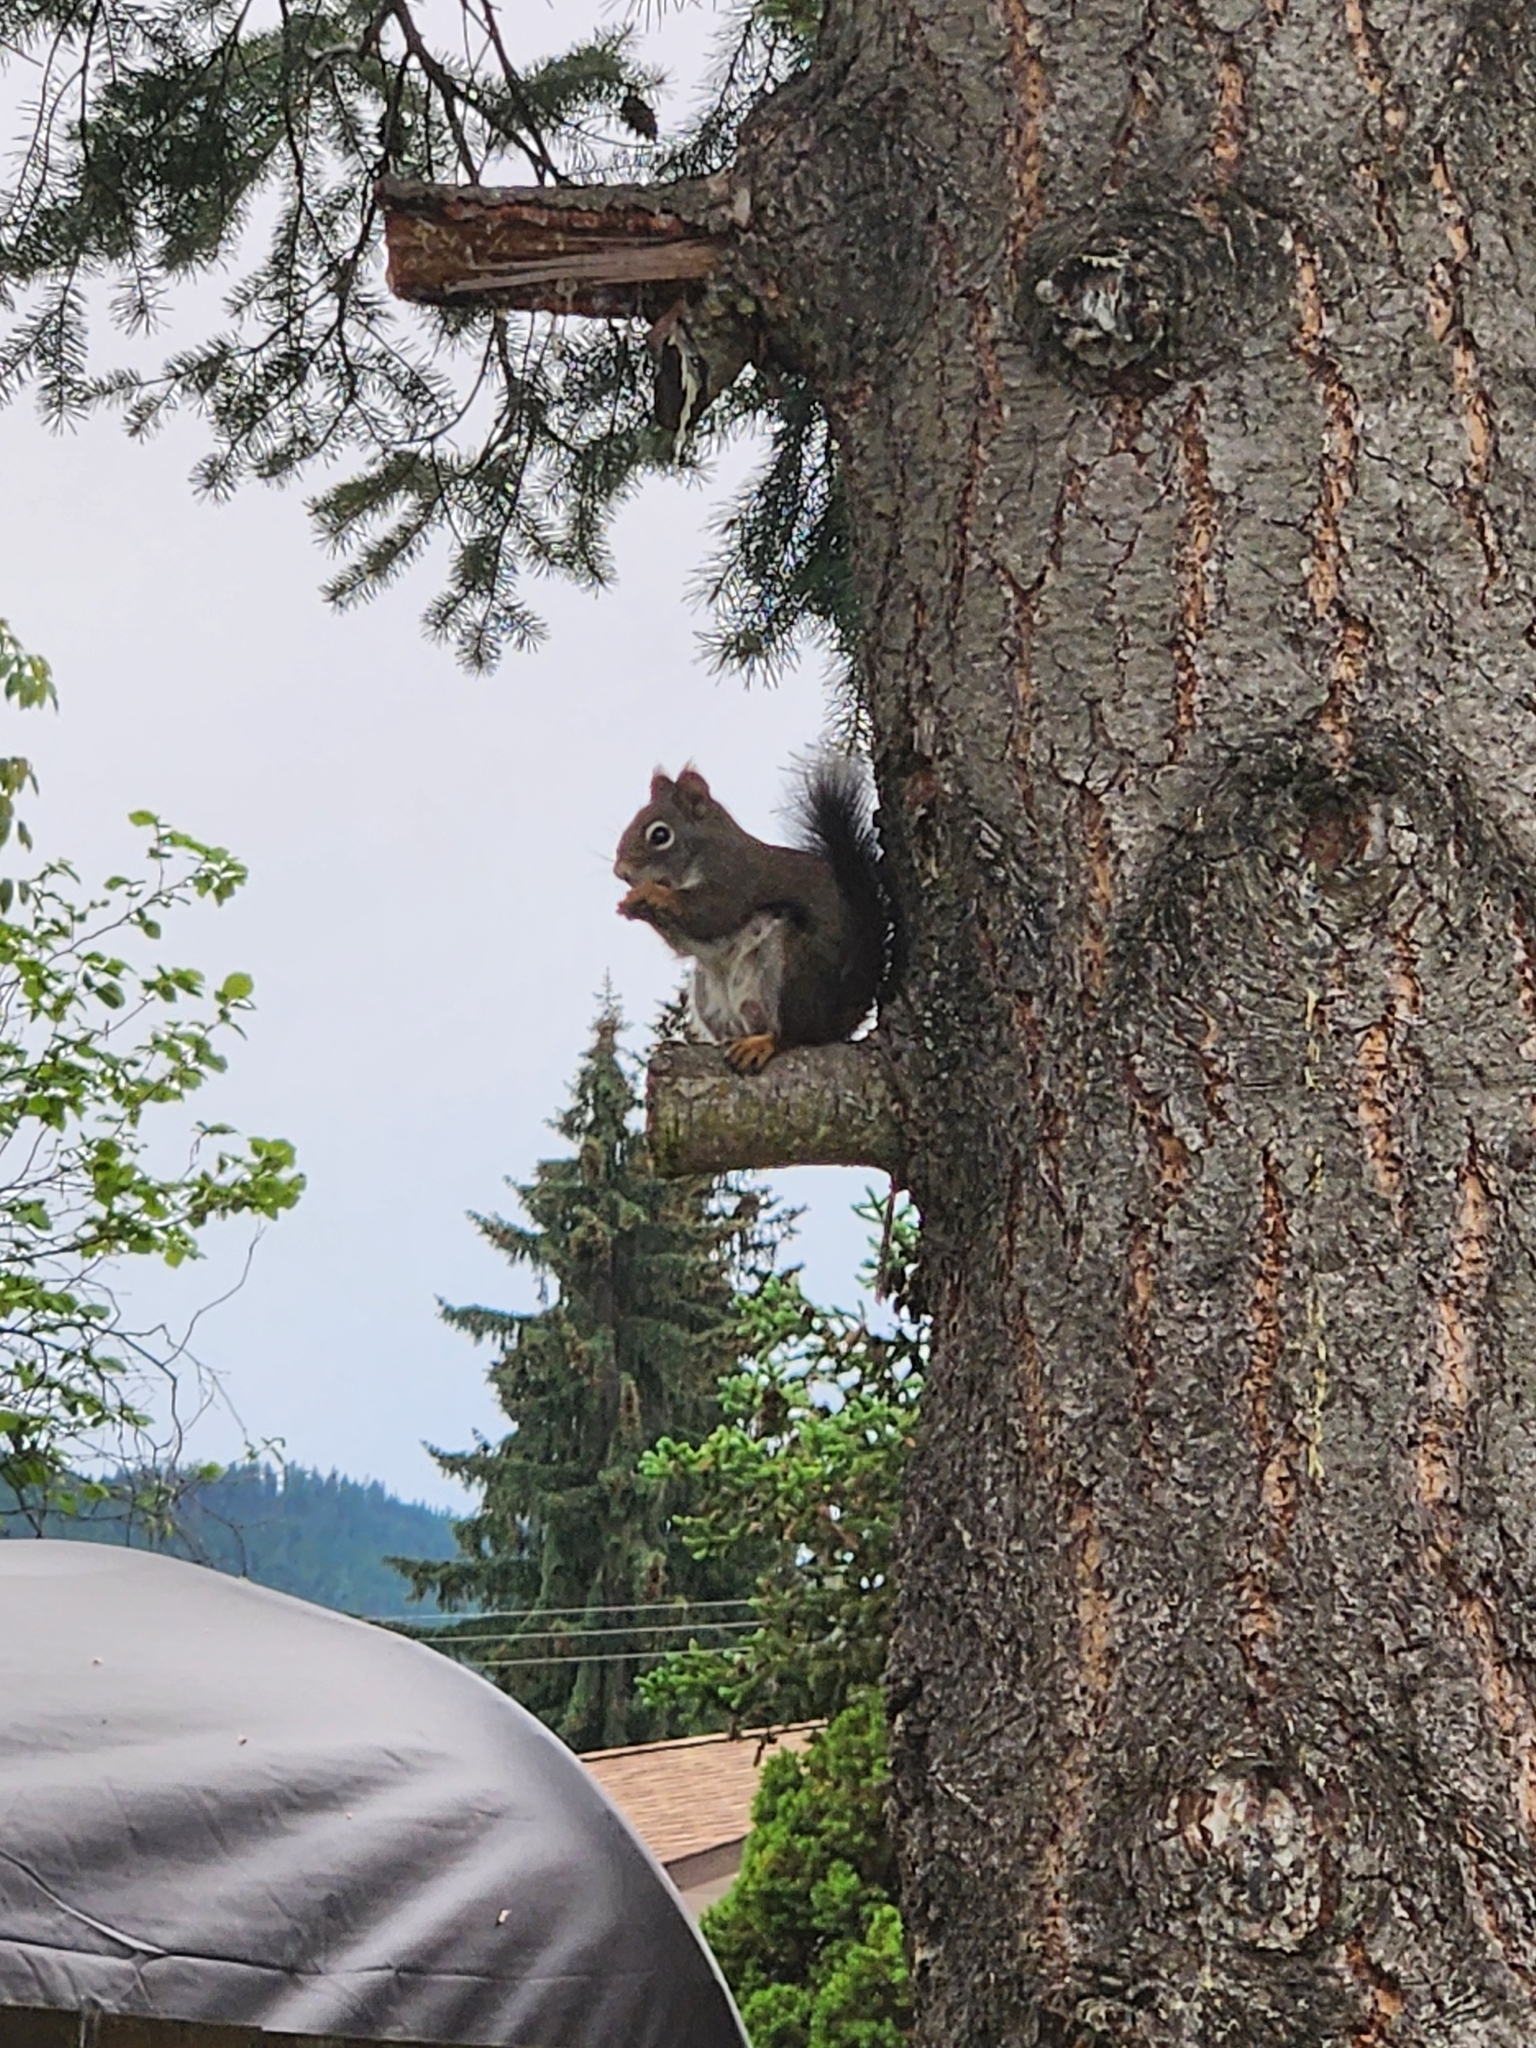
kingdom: Animalia
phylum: Chordata
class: Mammalia
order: Rodentia
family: Sciuridae
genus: Tamiasciurus
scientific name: Tamiasciurus hudsonicus
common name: Red squirrel
